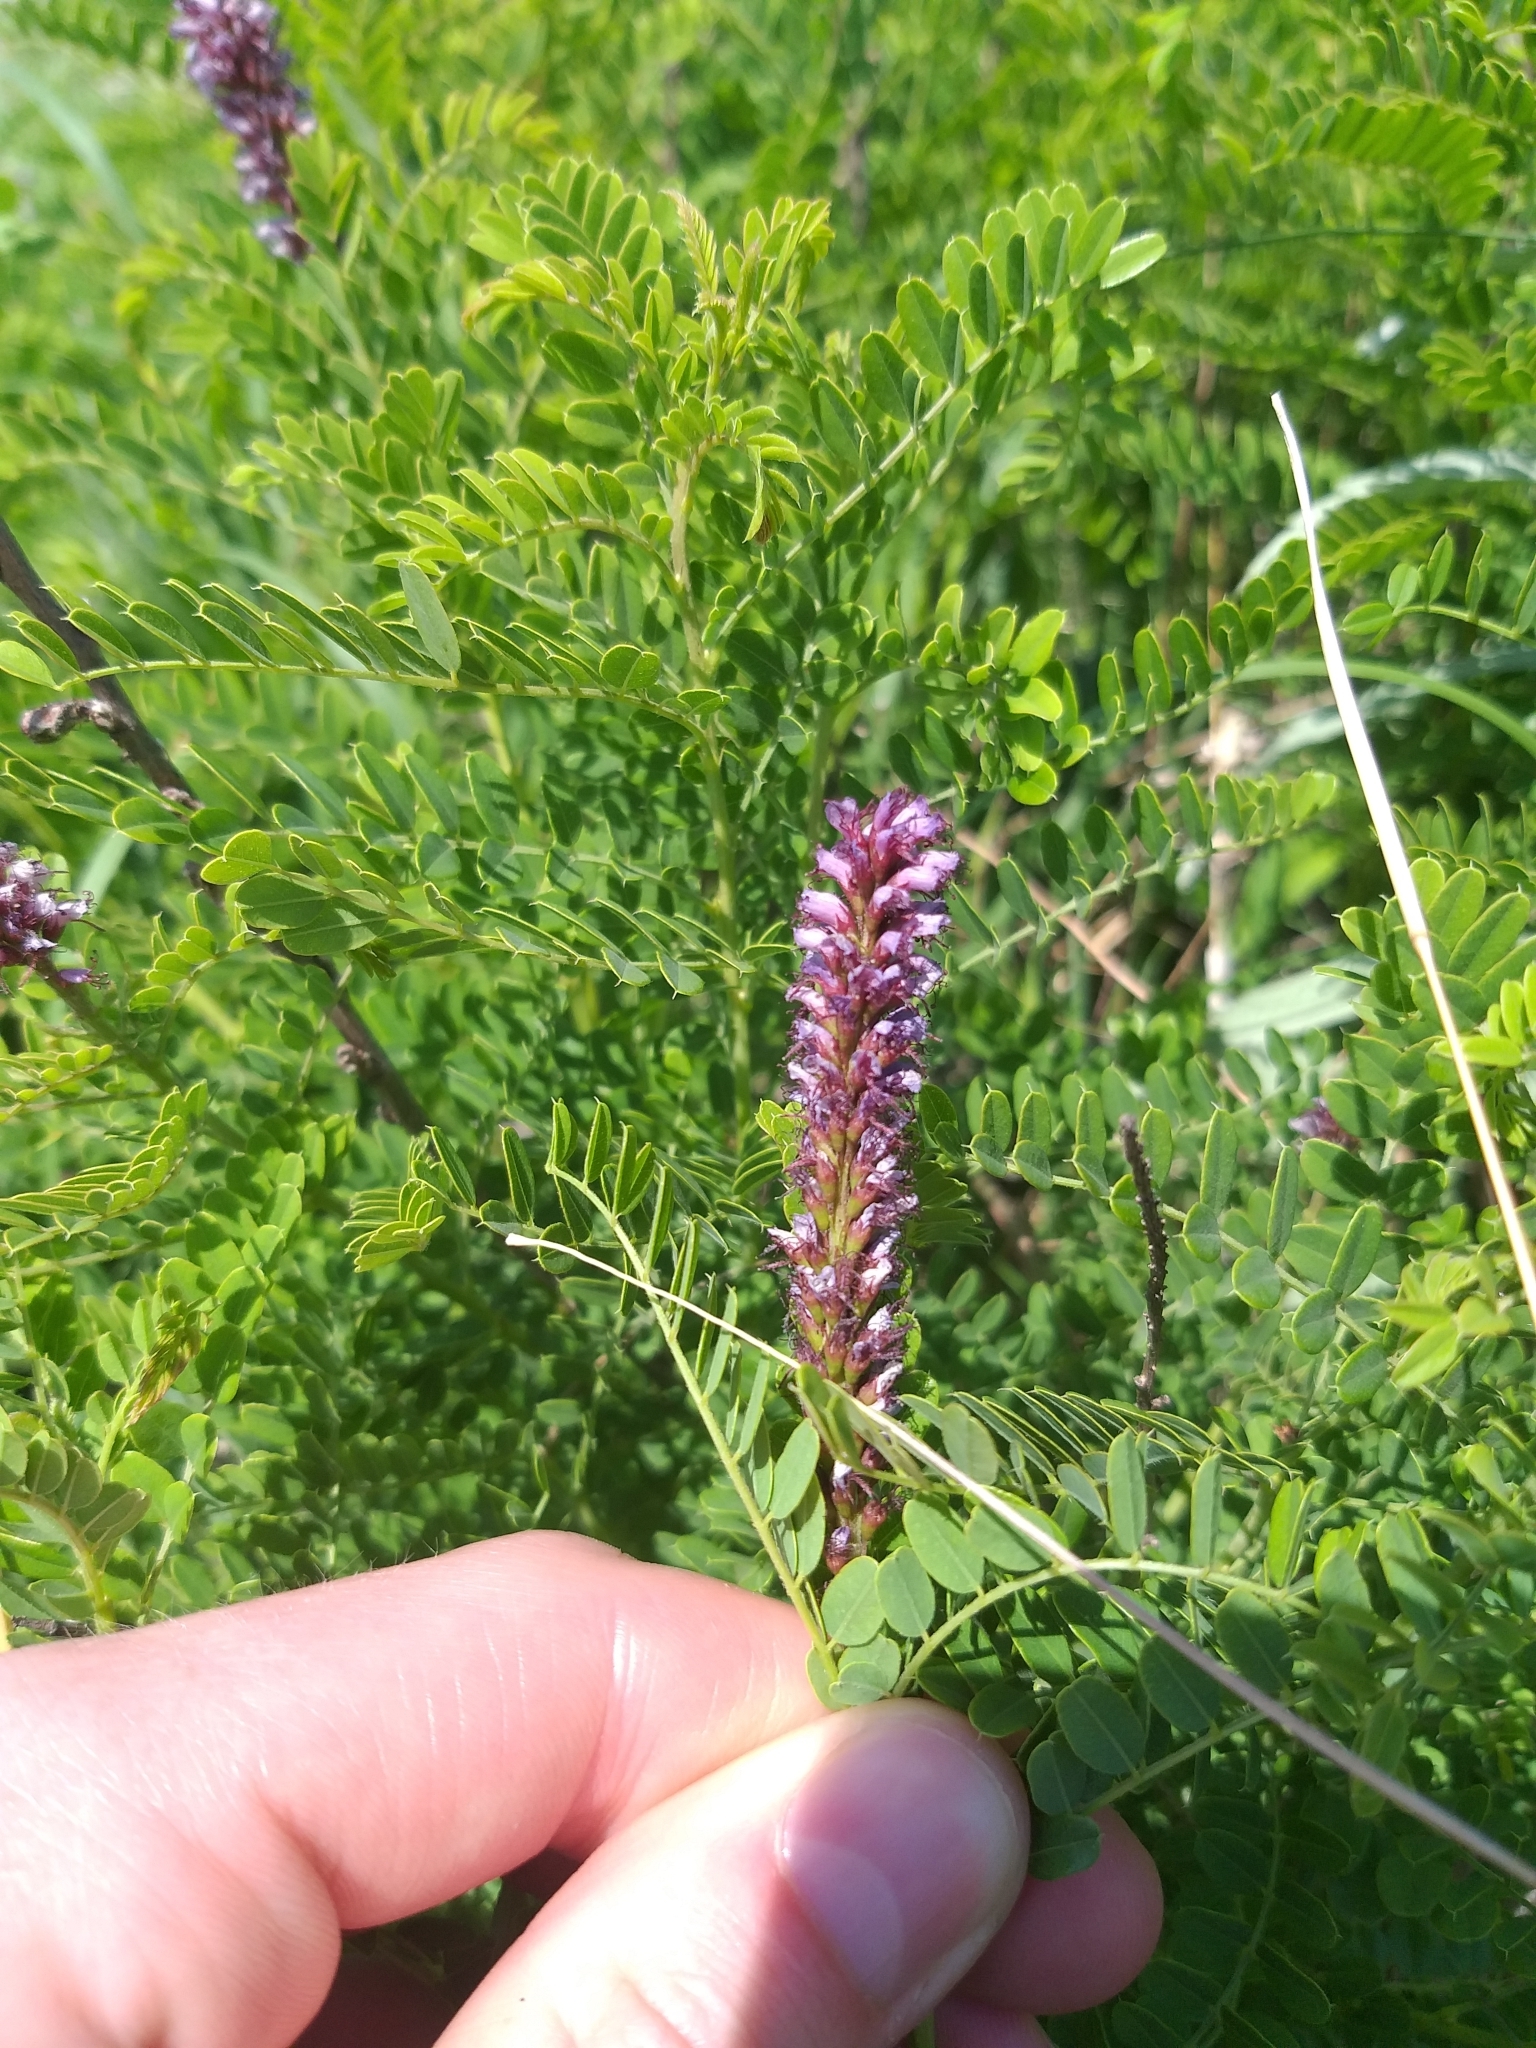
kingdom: Plantae
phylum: Tracheophyta
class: Magnoliopsida
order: Fabales
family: Fabaceae
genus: Amorpha
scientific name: Amorpha nana
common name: Fragrant false indigo
